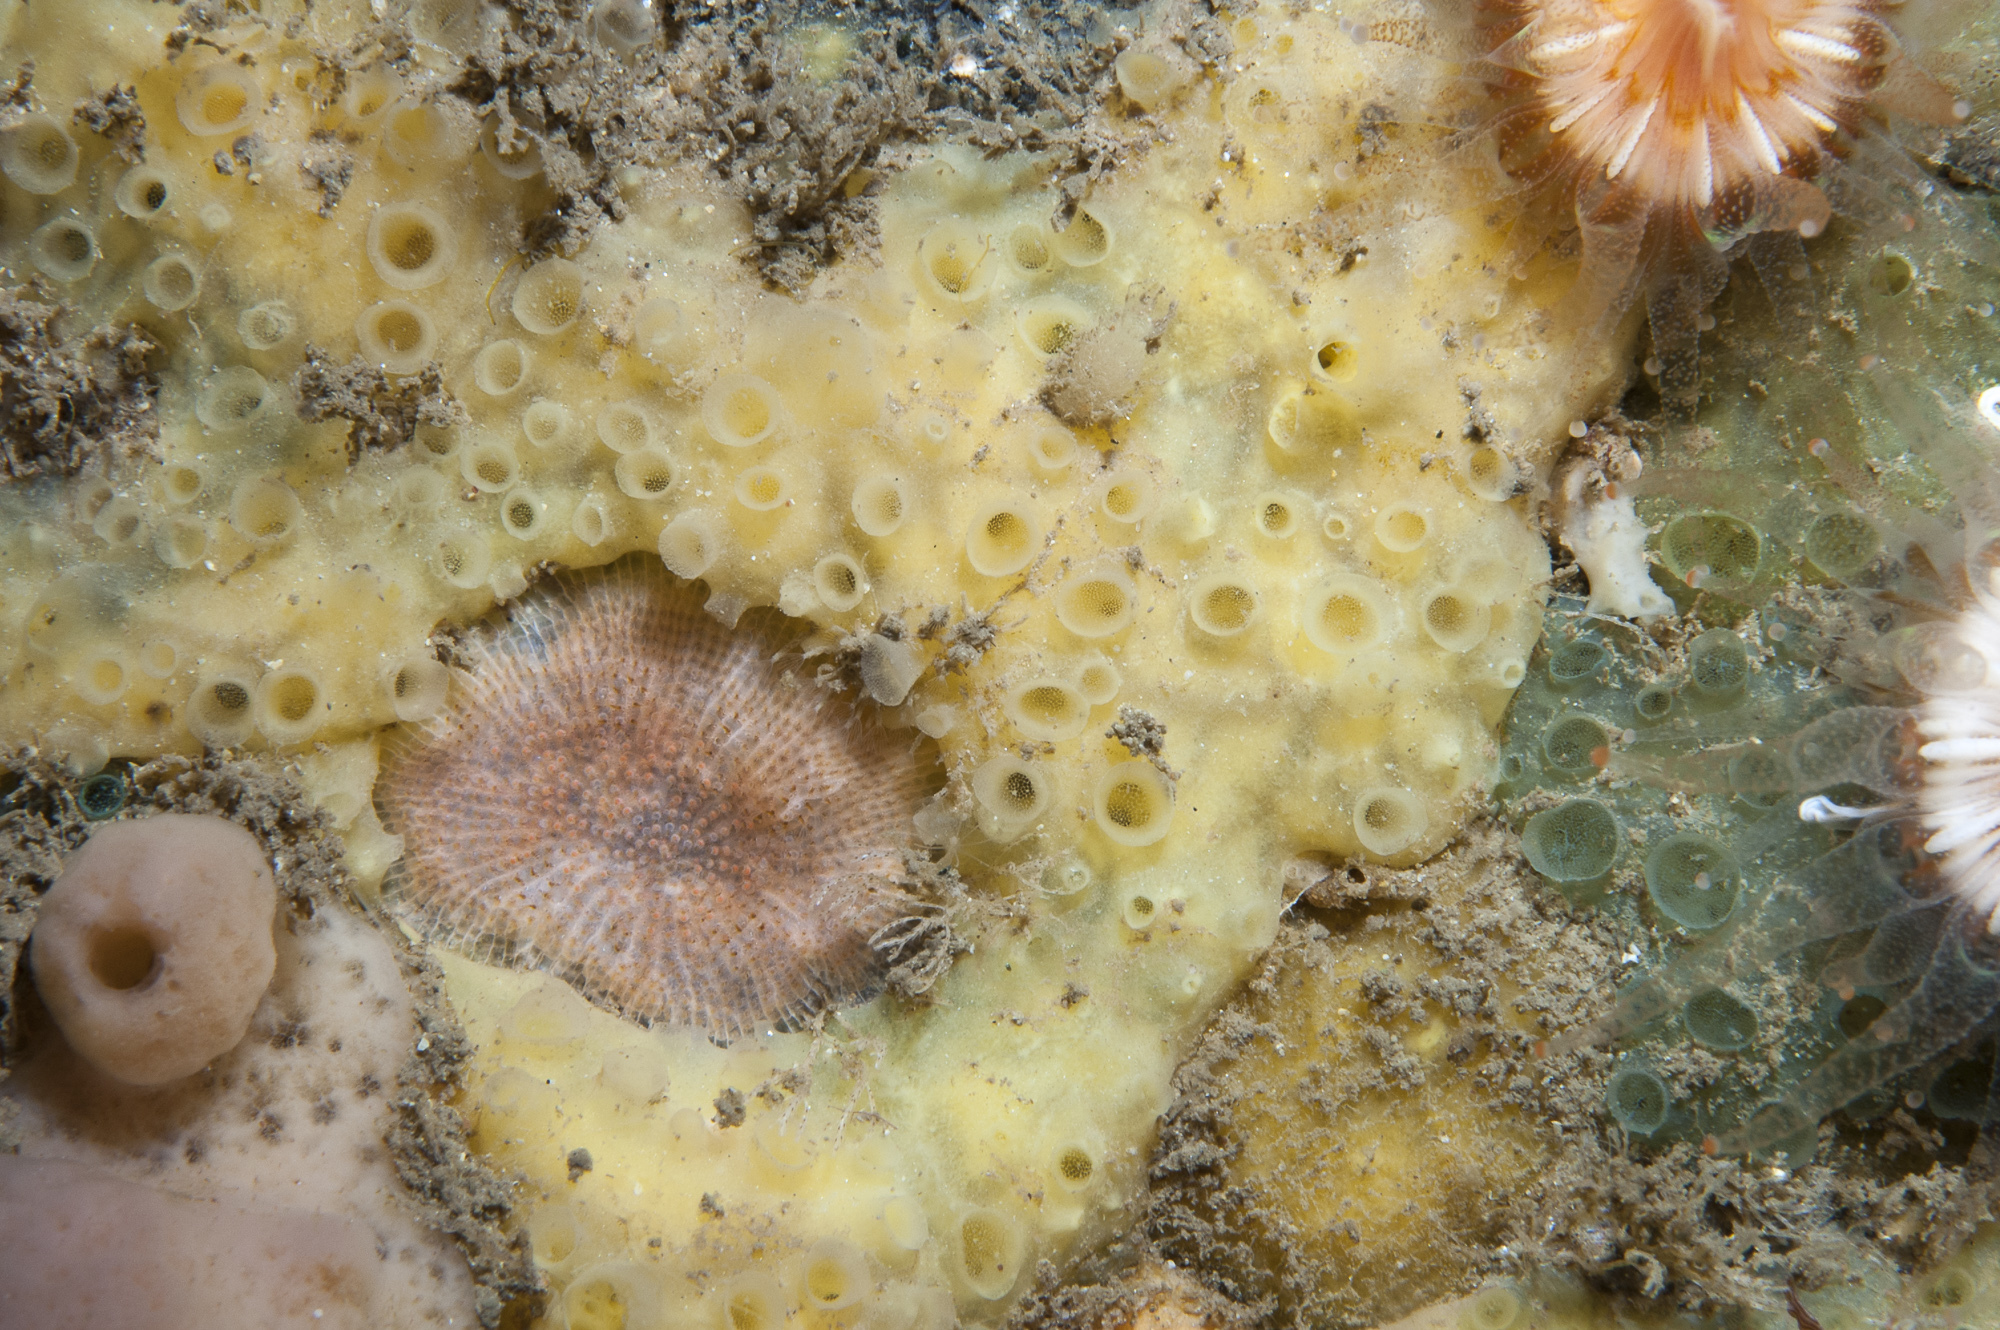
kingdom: Animalia
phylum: Porifera
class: Demospongiae
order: Poecilosclerida
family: Coelosphaeridae
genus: Lissodendoryx
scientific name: Lissodendoryx jenjonesae
